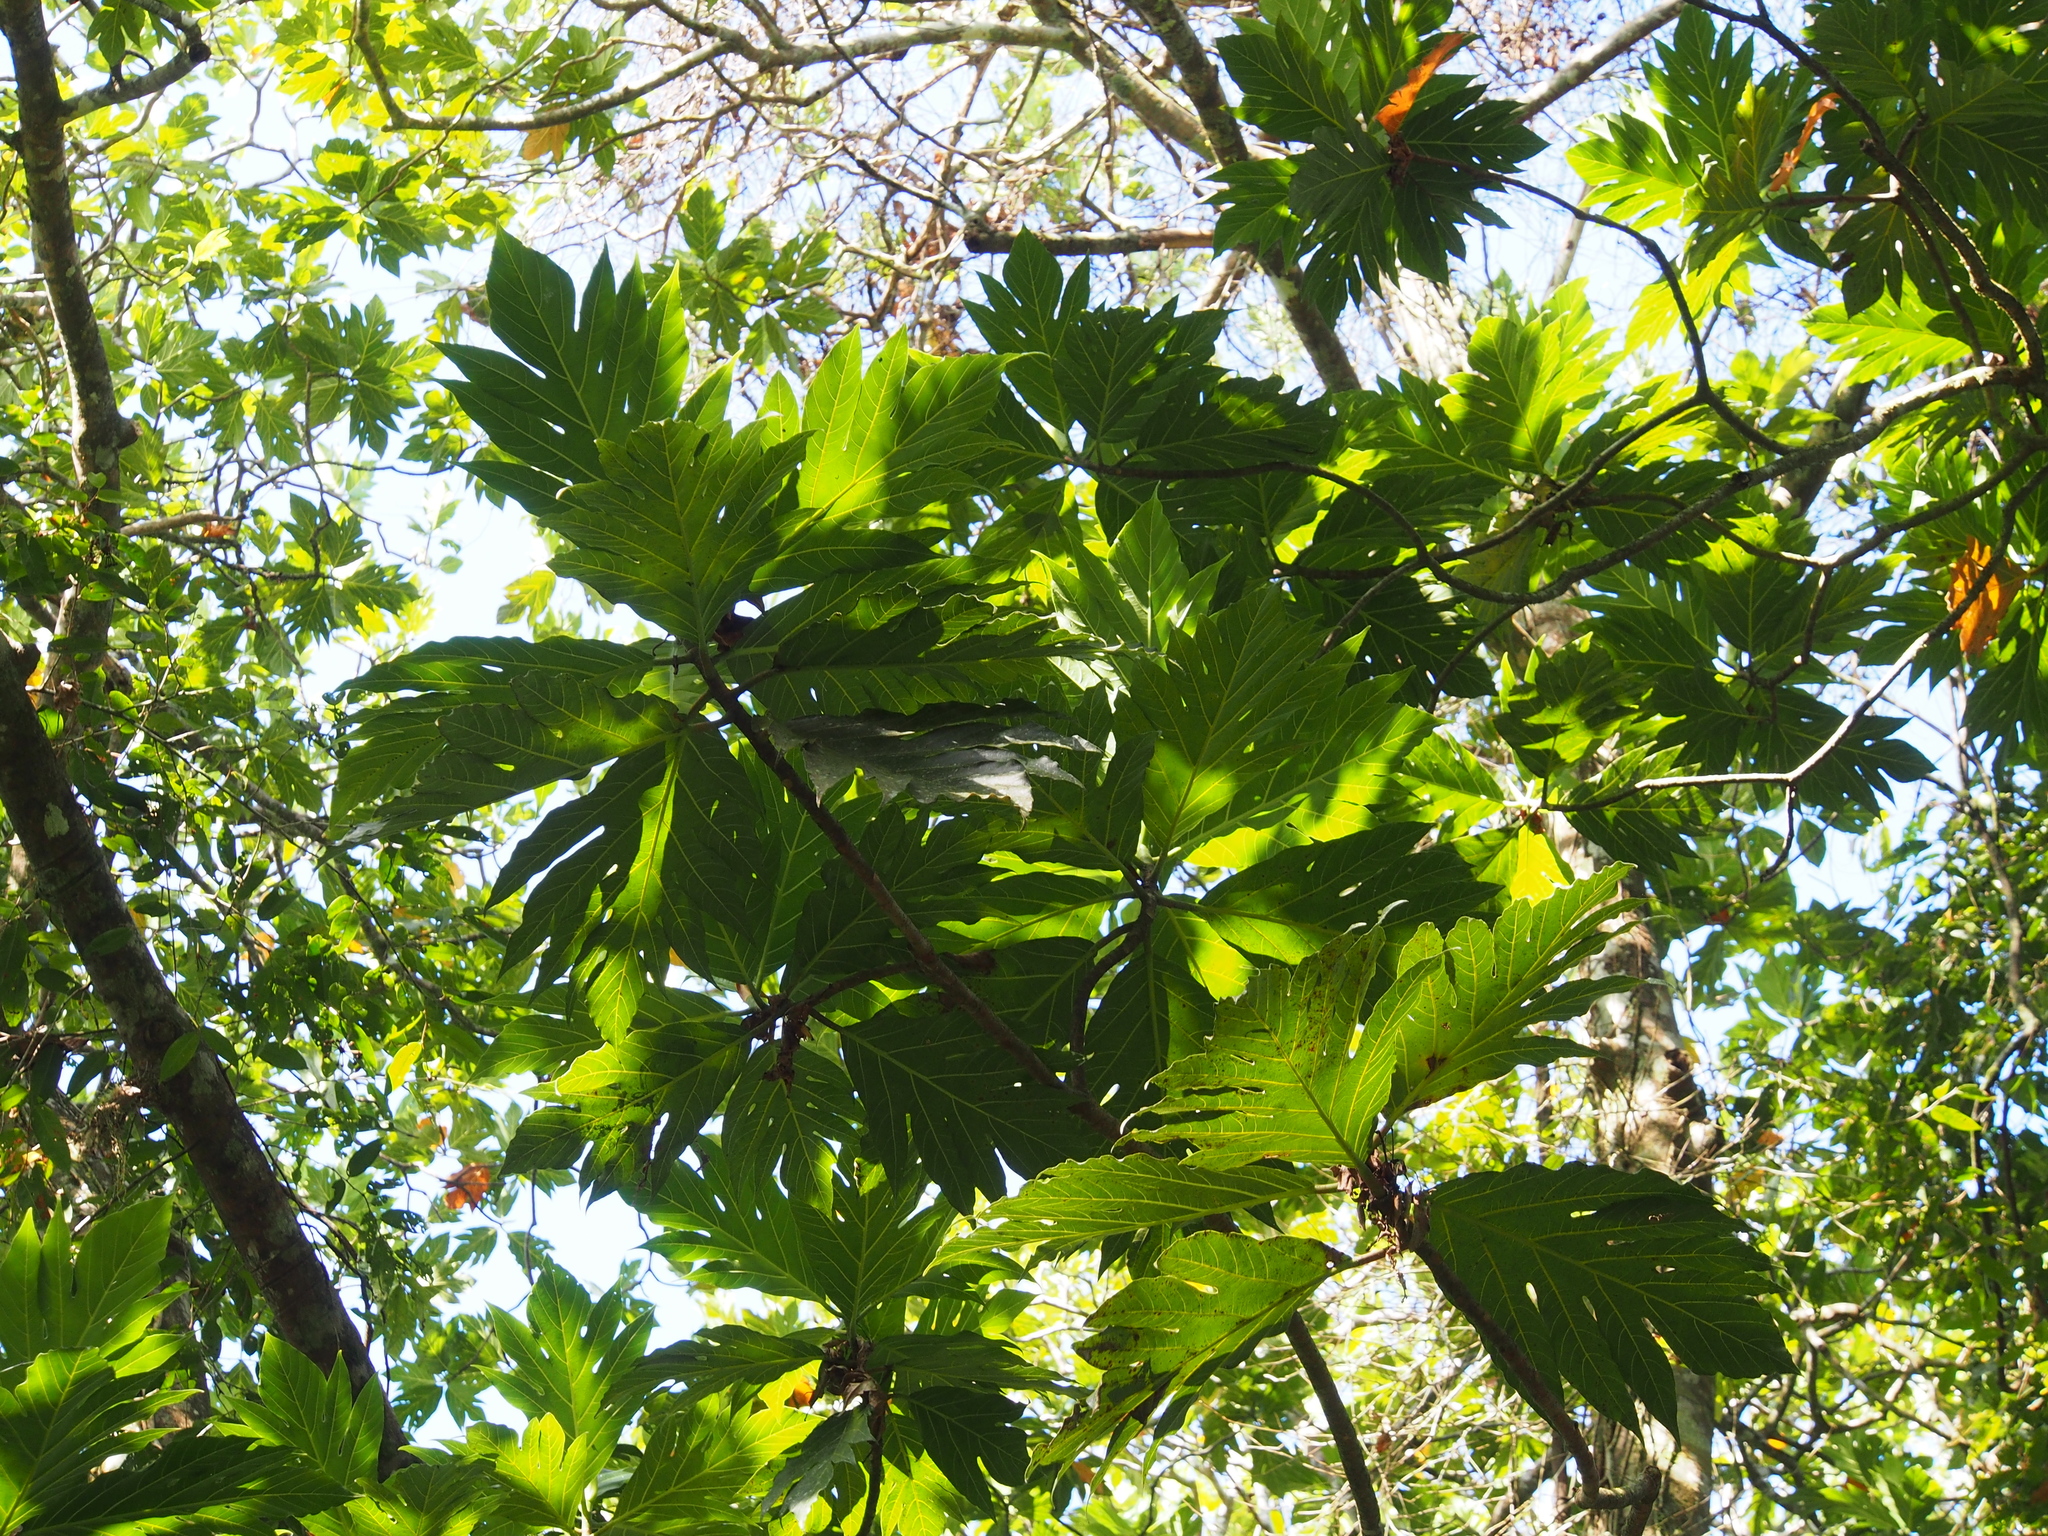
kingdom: Plantae
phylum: Tracheophyta
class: Magnoliopsida
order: Rosales
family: Moraceae
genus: Artocarpus
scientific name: Artocarpus altilis
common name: Breadfruit
